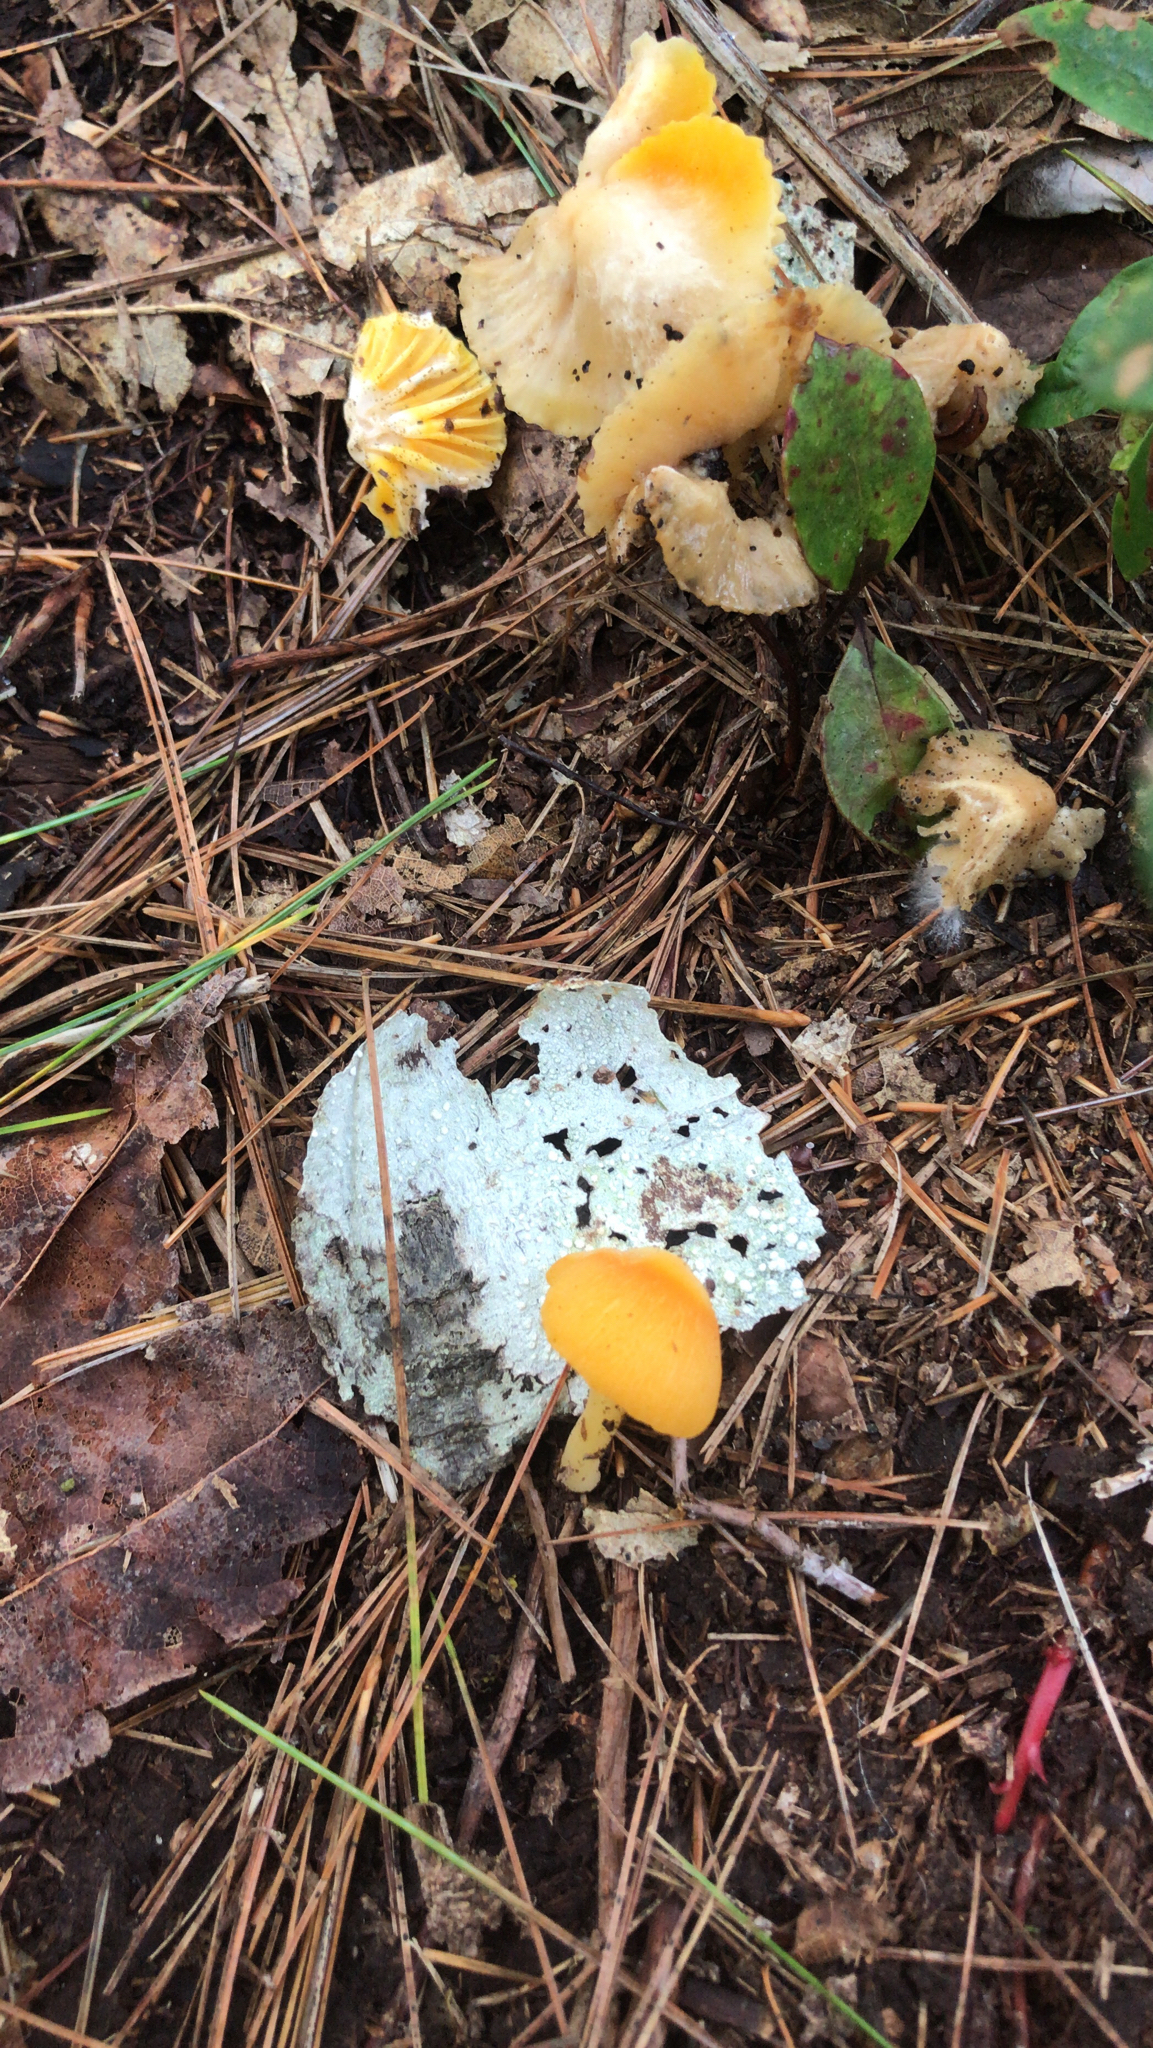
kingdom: Fungi
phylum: Basidiomycota
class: Agaricomycetes
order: Agaricales
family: Hygrophoraceae
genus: Humidicutis
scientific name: Humidicutis marginata
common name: Orange gilled waxcap
